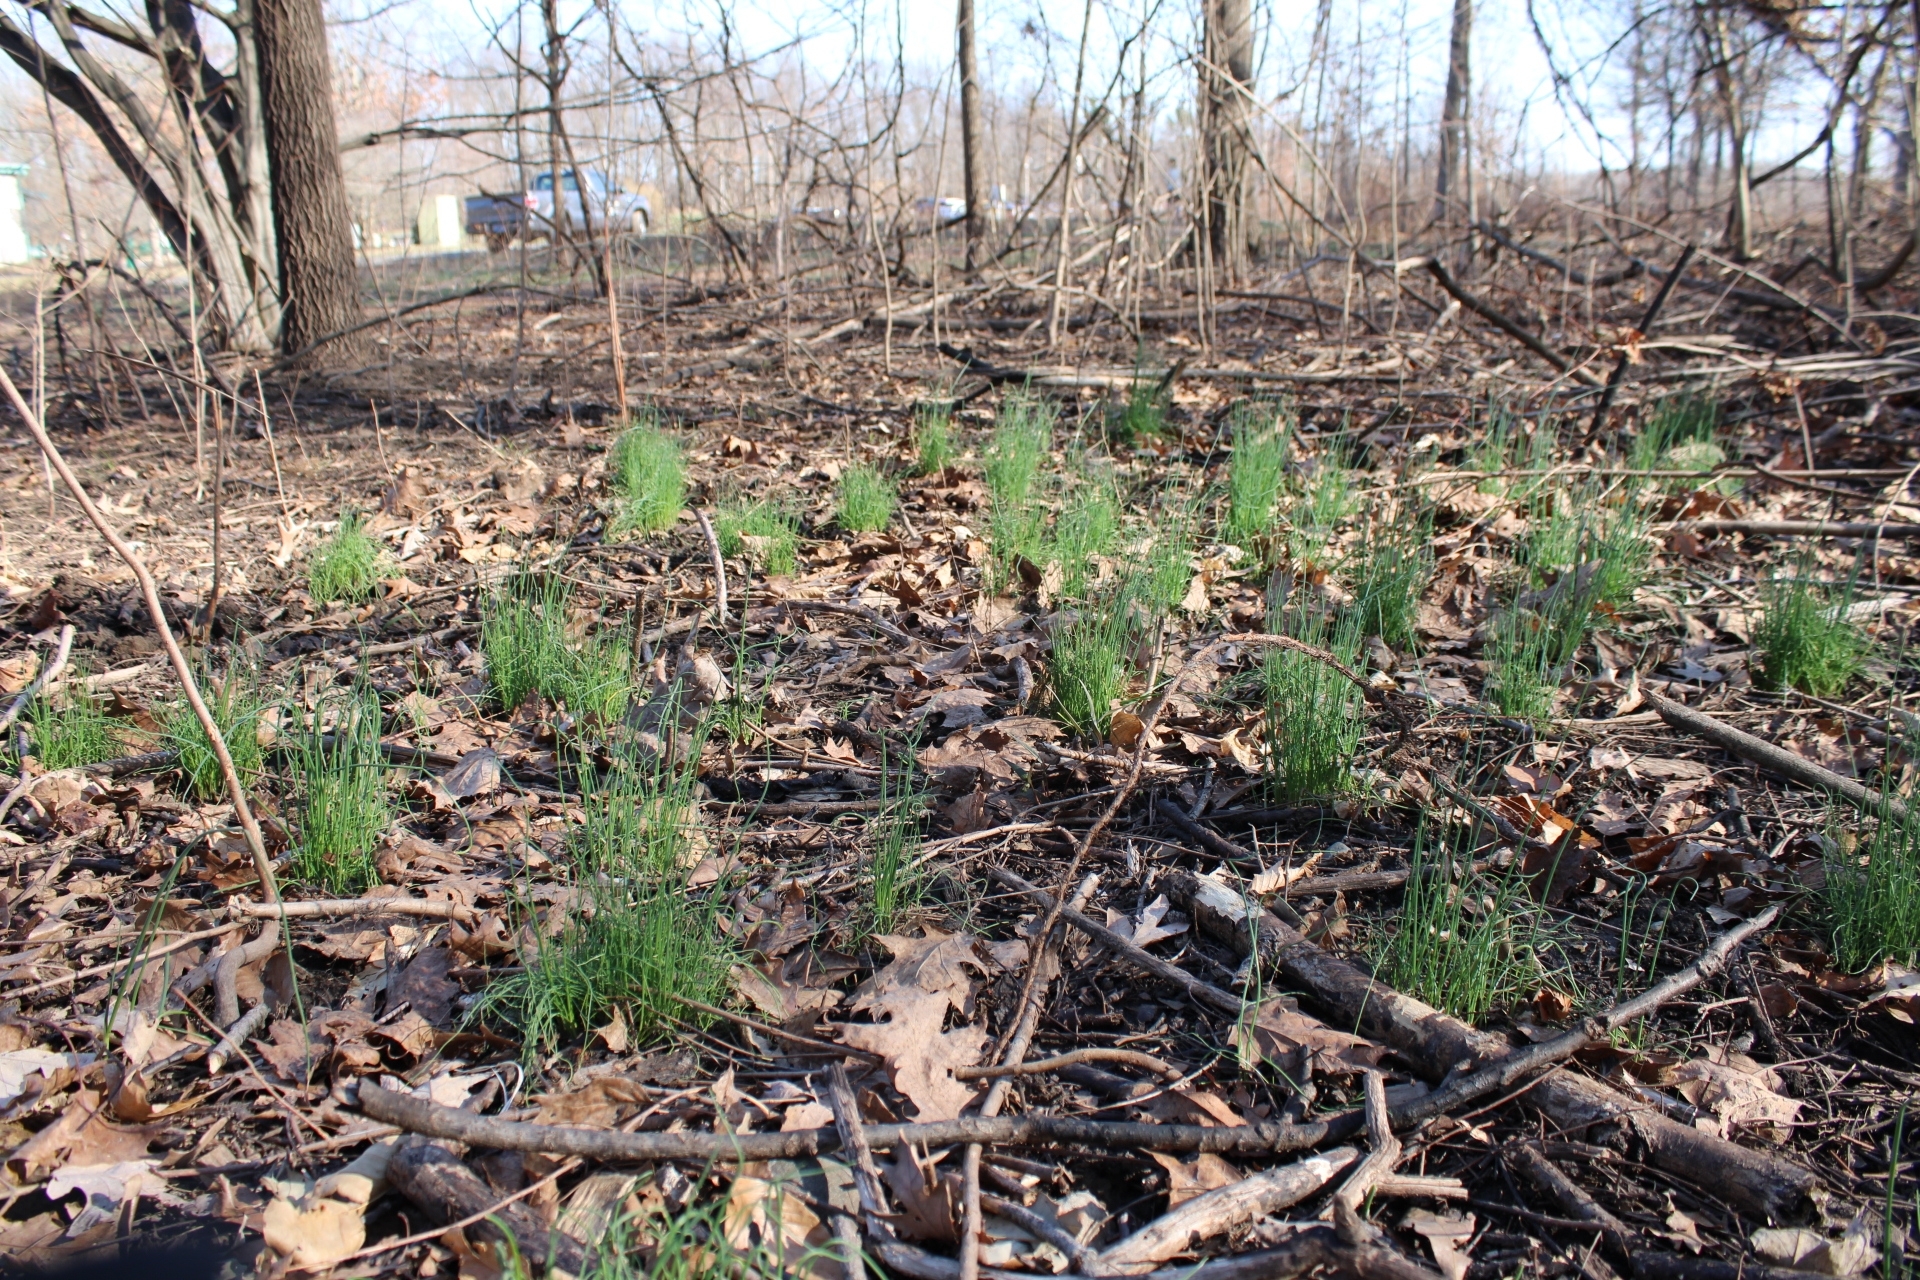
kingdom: Plantae
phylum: Tracheophyta
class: Liliopsida
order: Asparagales
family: Amaryllidaceae
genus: Allium
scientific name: Allium vineale
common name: Crow garlic
